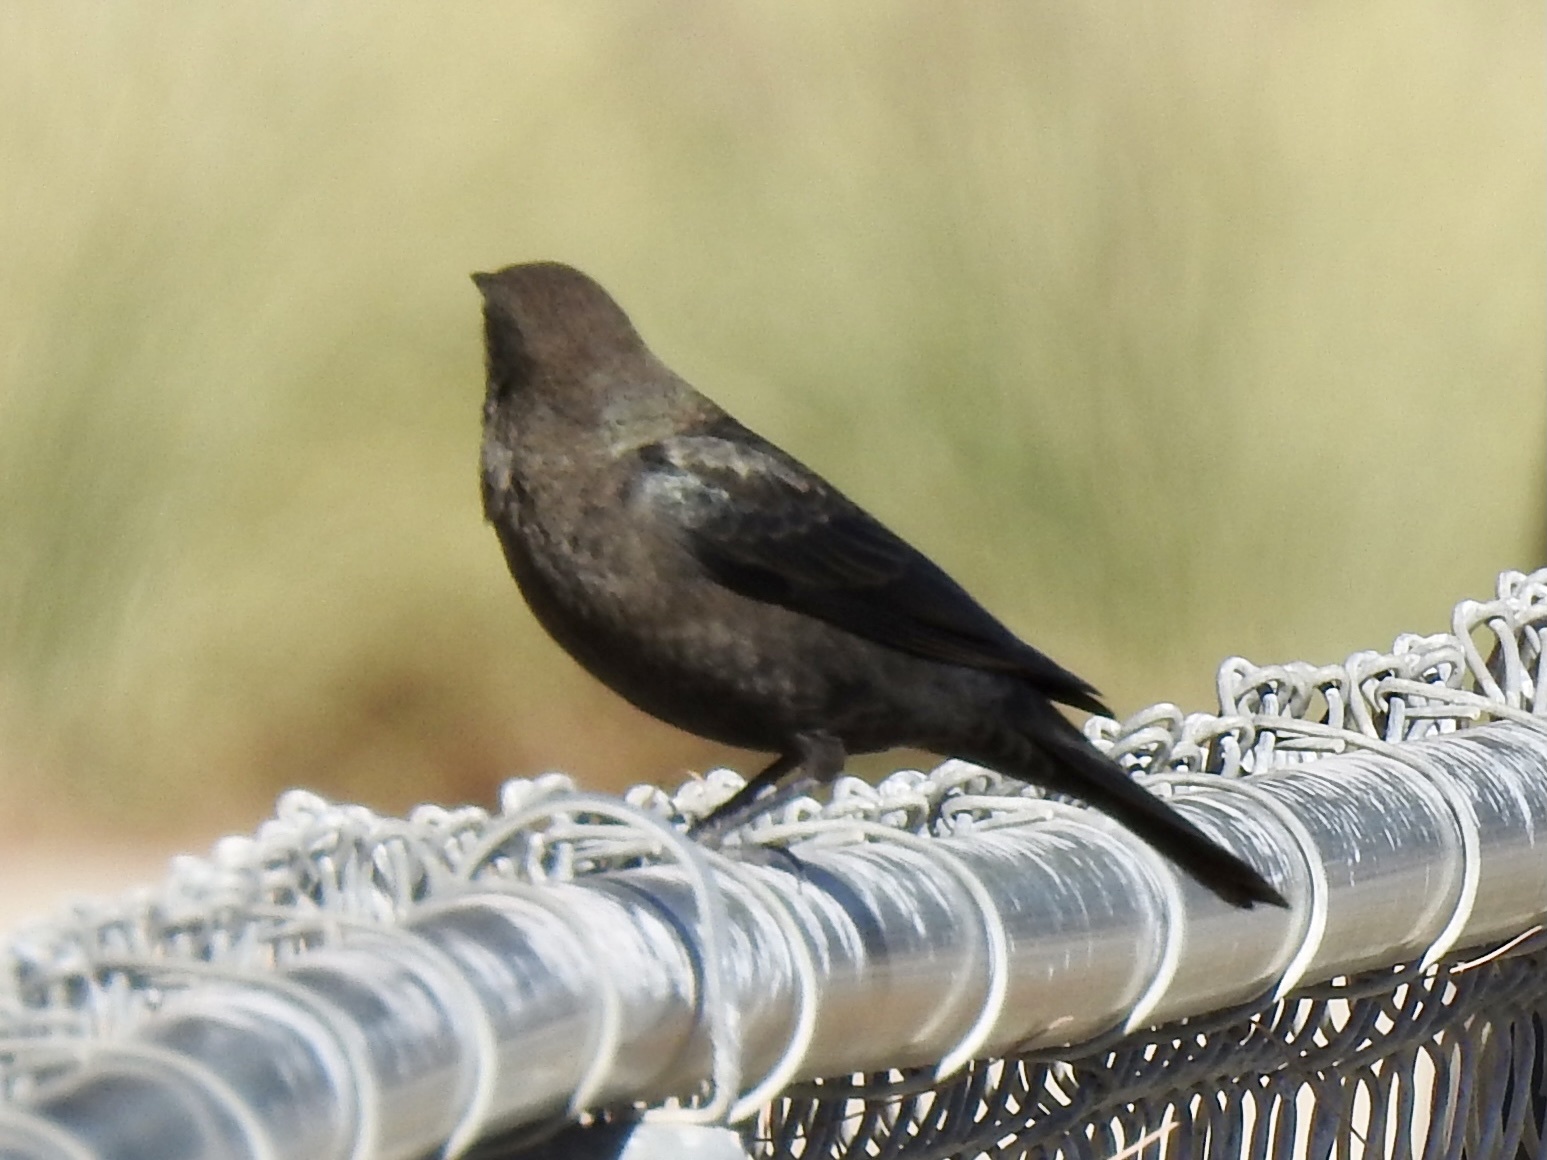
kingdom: Animalia
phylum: Chordata
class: Aves
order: Passeriformes
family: Icteridae
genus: Euphagus
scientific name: Euphagus cyanocephalus
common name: Brewer's blackbird
